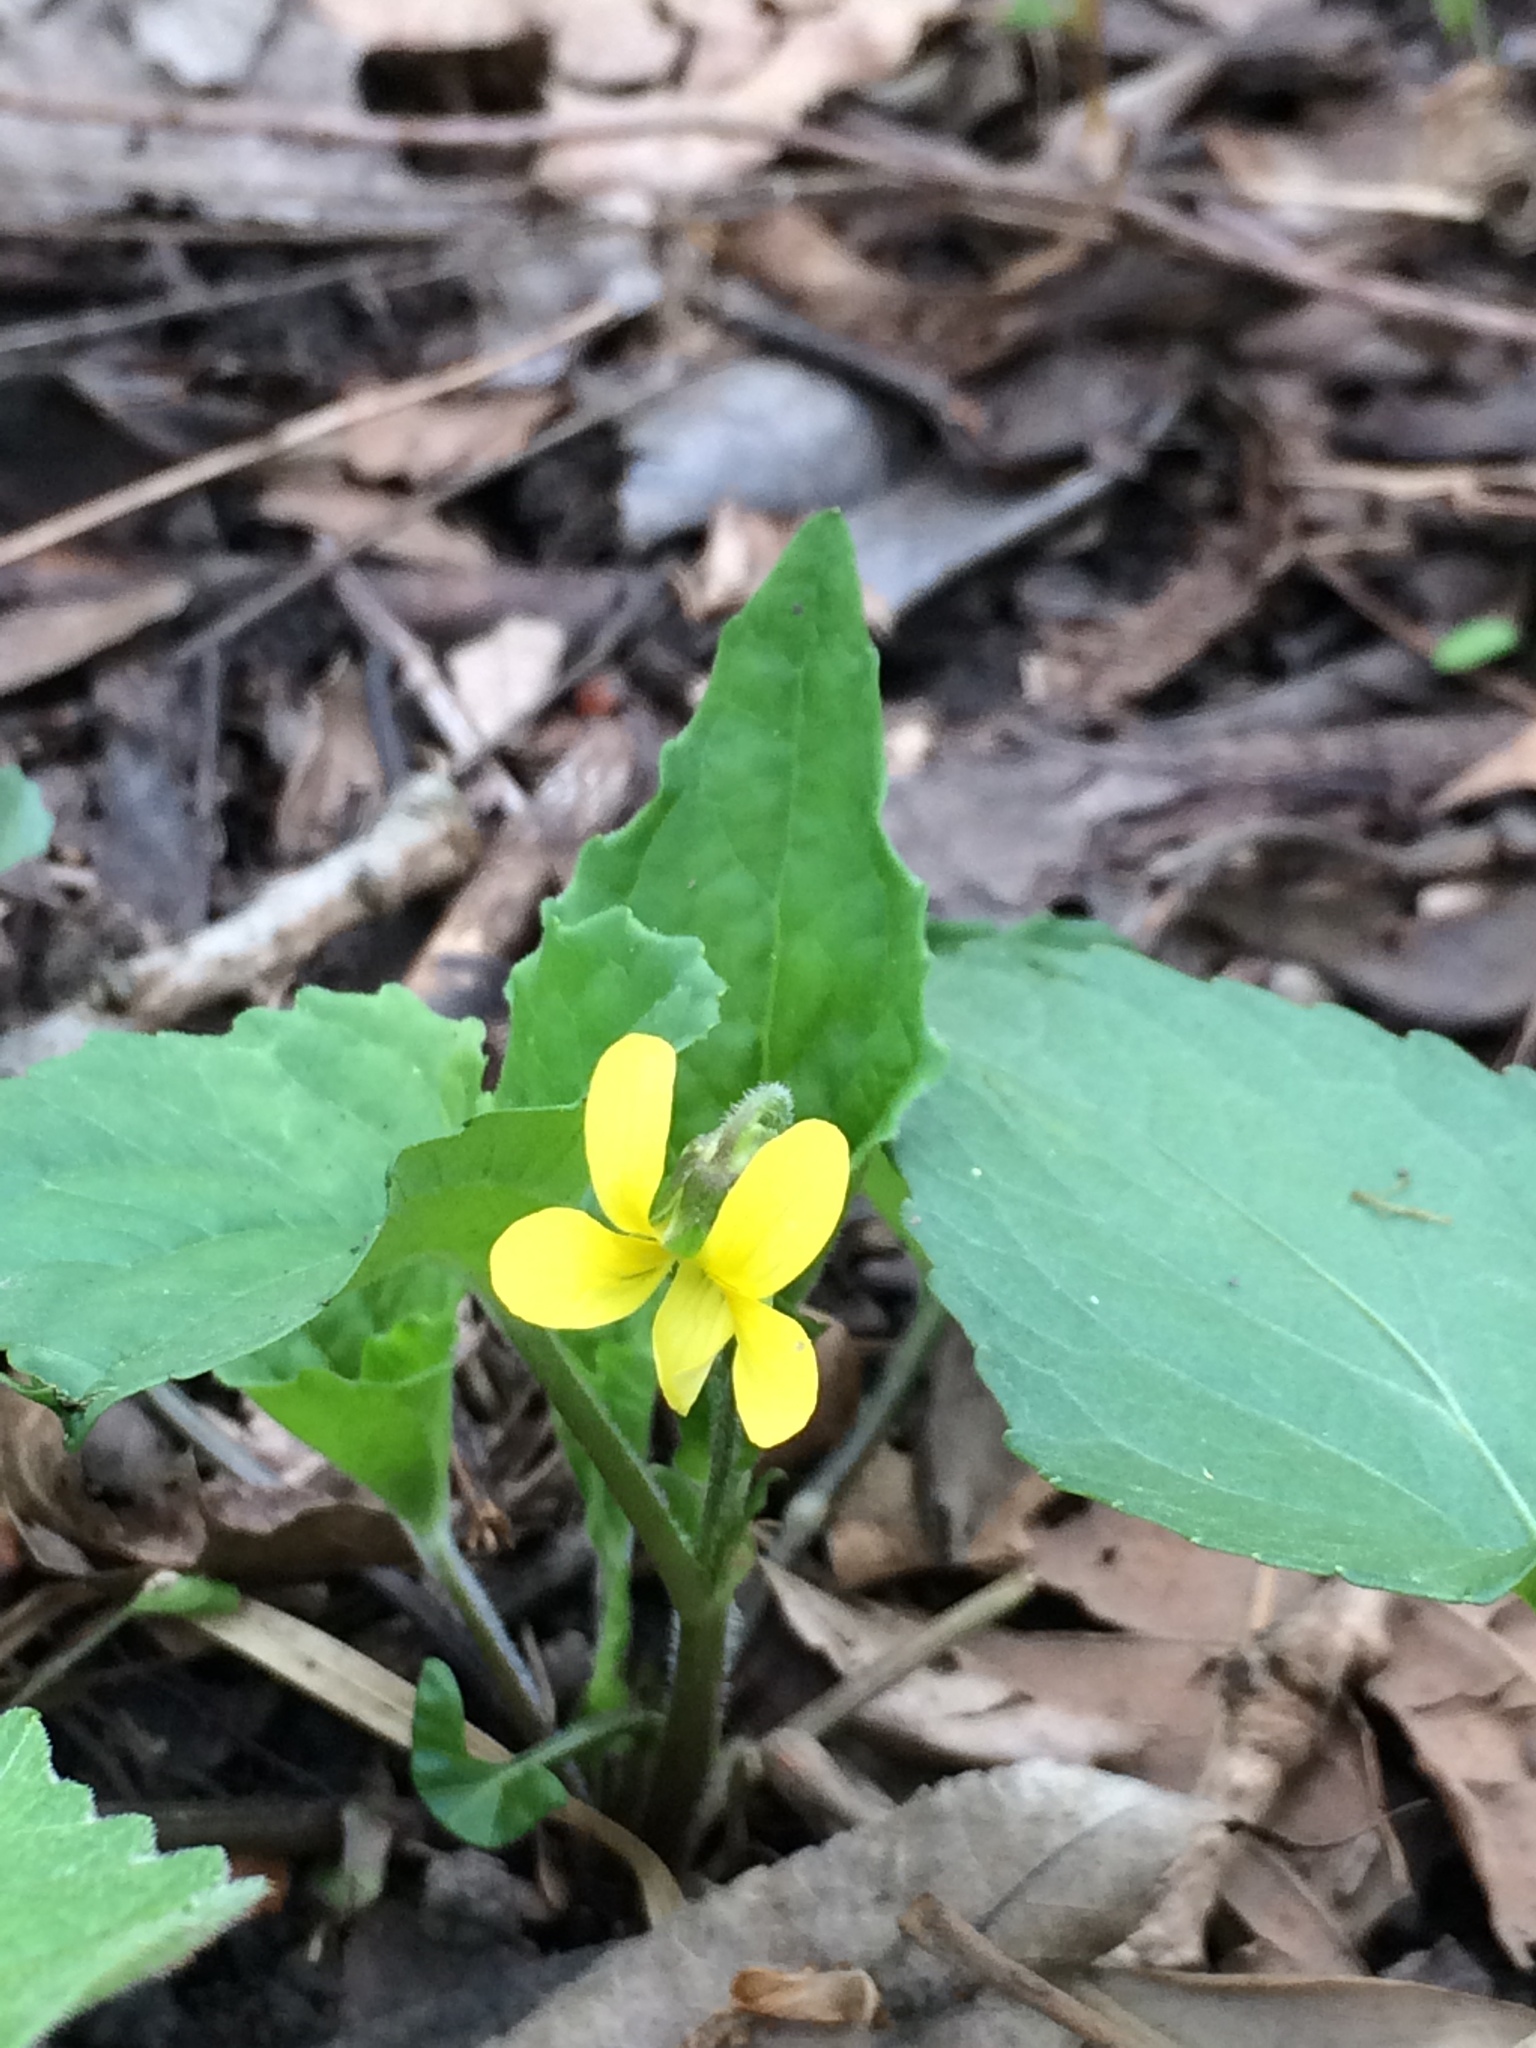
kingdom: Plantae
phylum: Tracheophyta
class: Magnoliopsida
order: Malpighiales
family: Violaceae
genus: Viola
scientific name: Viola eriocarpa
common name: Smooth yellow violet
